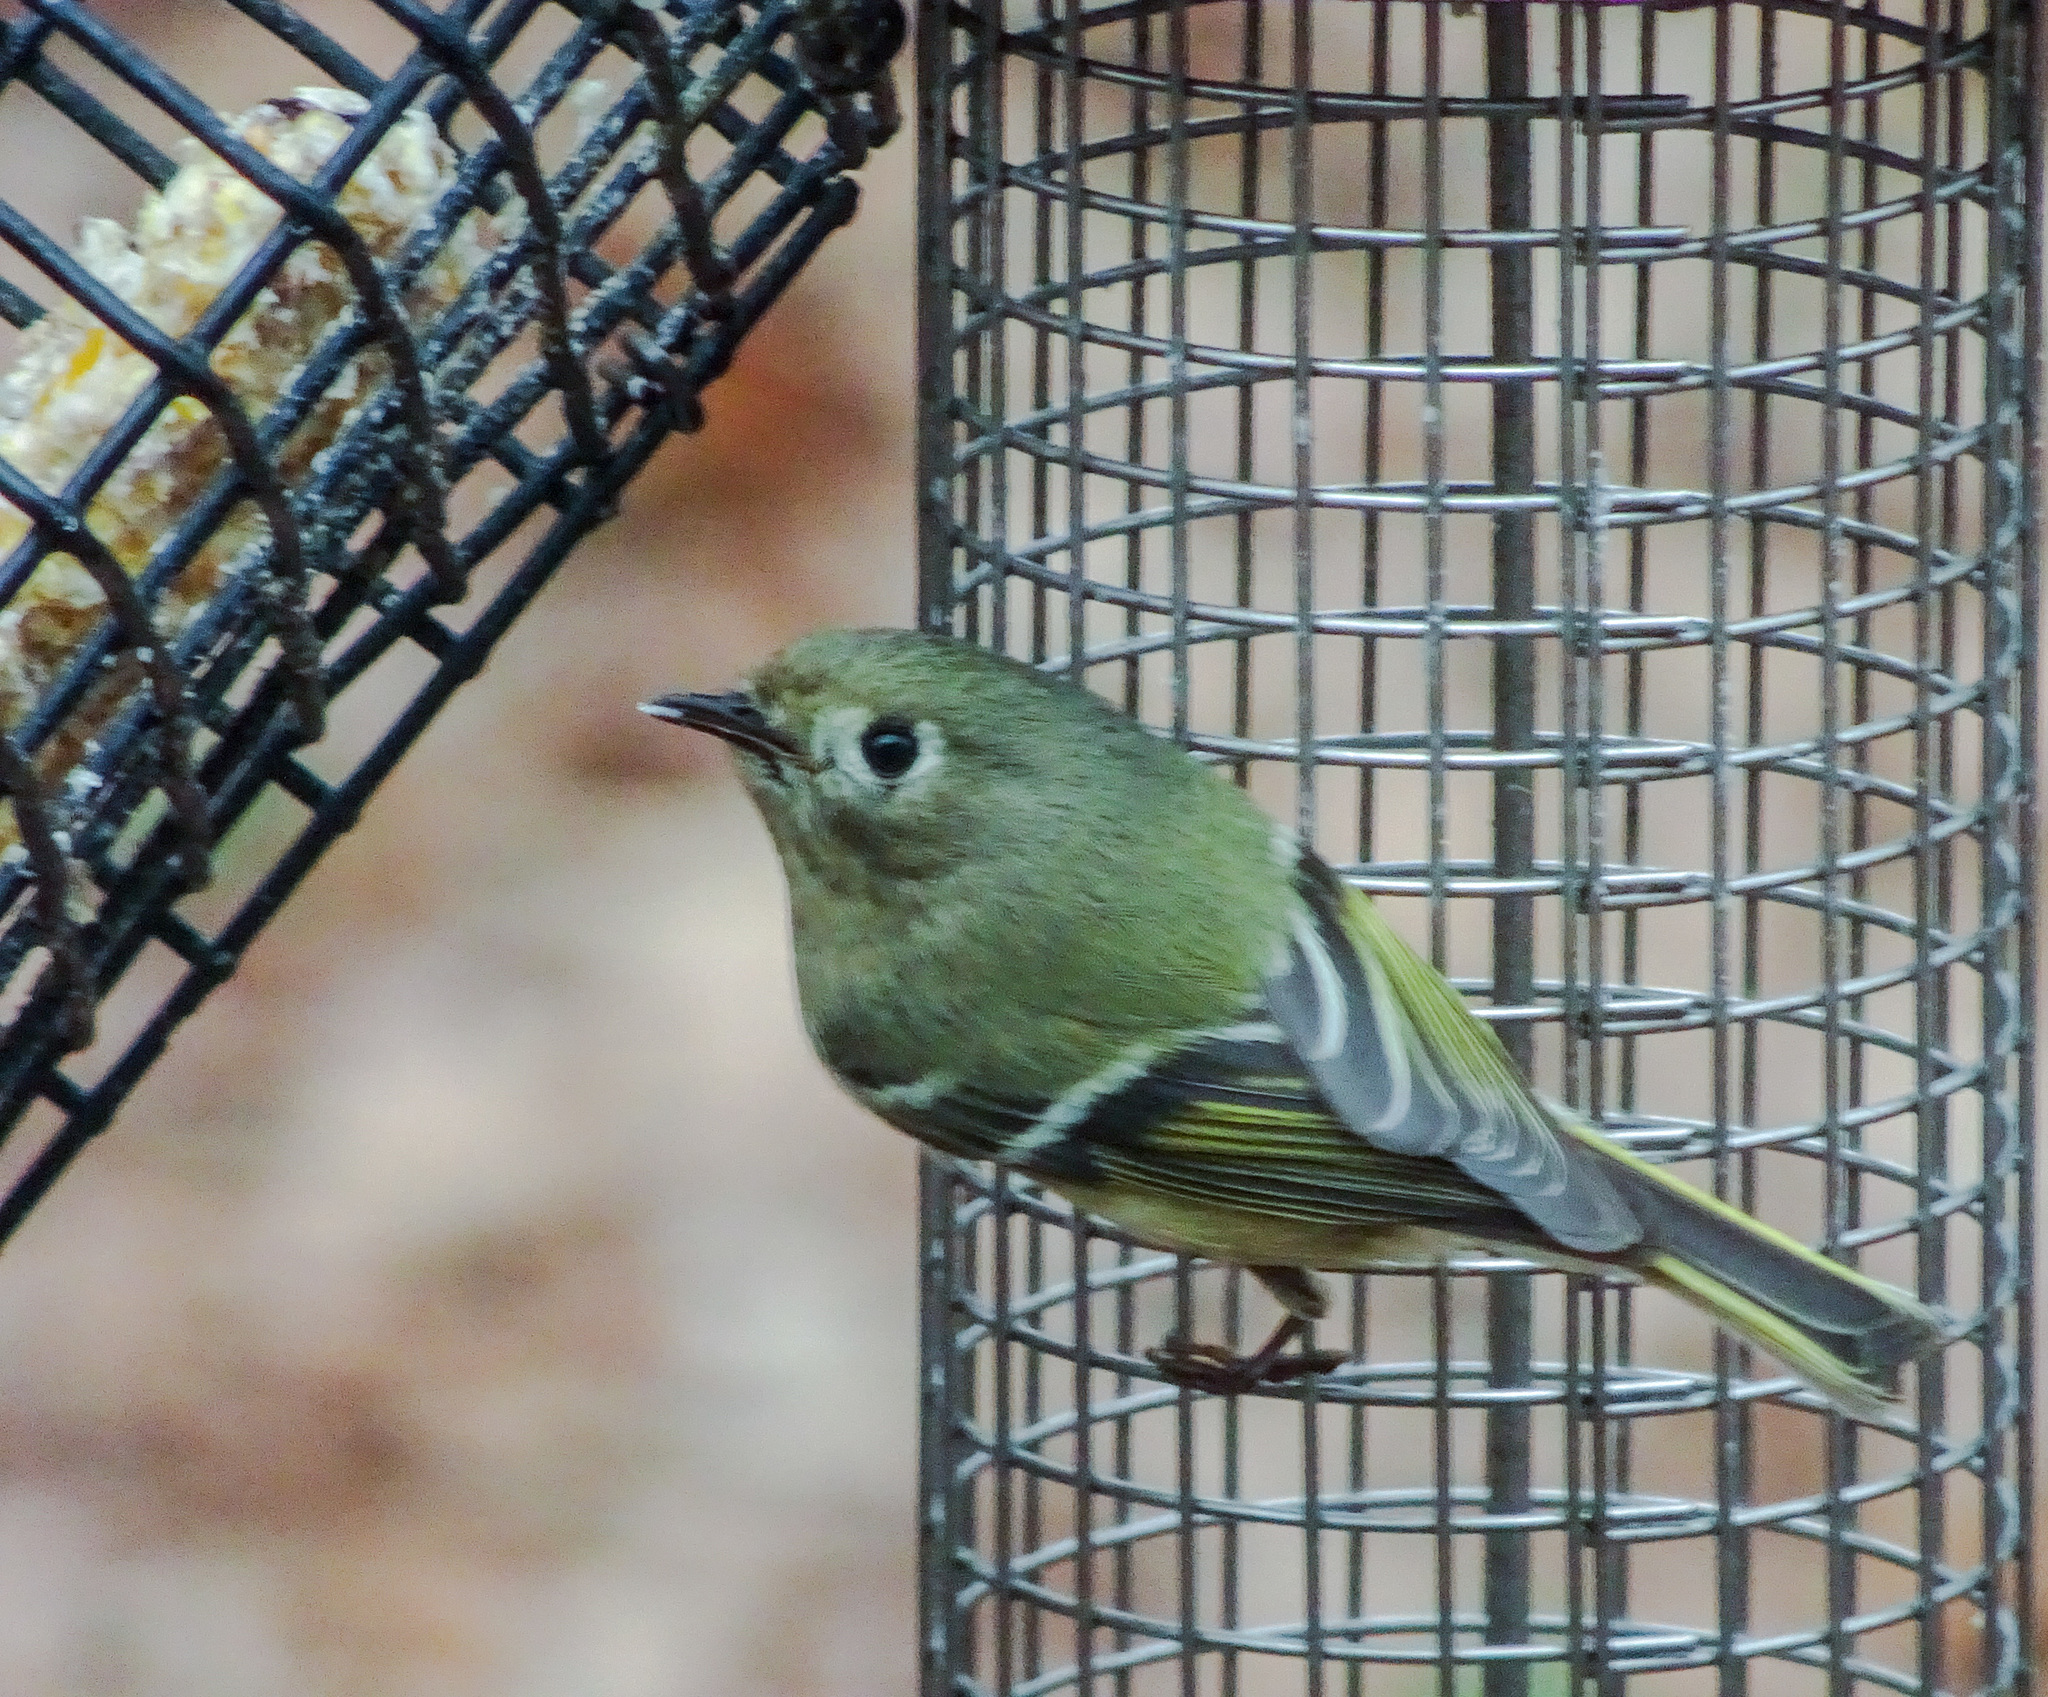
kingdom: Animalia
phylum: Chordata
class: Aves
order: Passeriformes
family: Regulidae
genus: Regulus
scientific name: Regulus calendula
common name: Ruby-crowned kinglet
